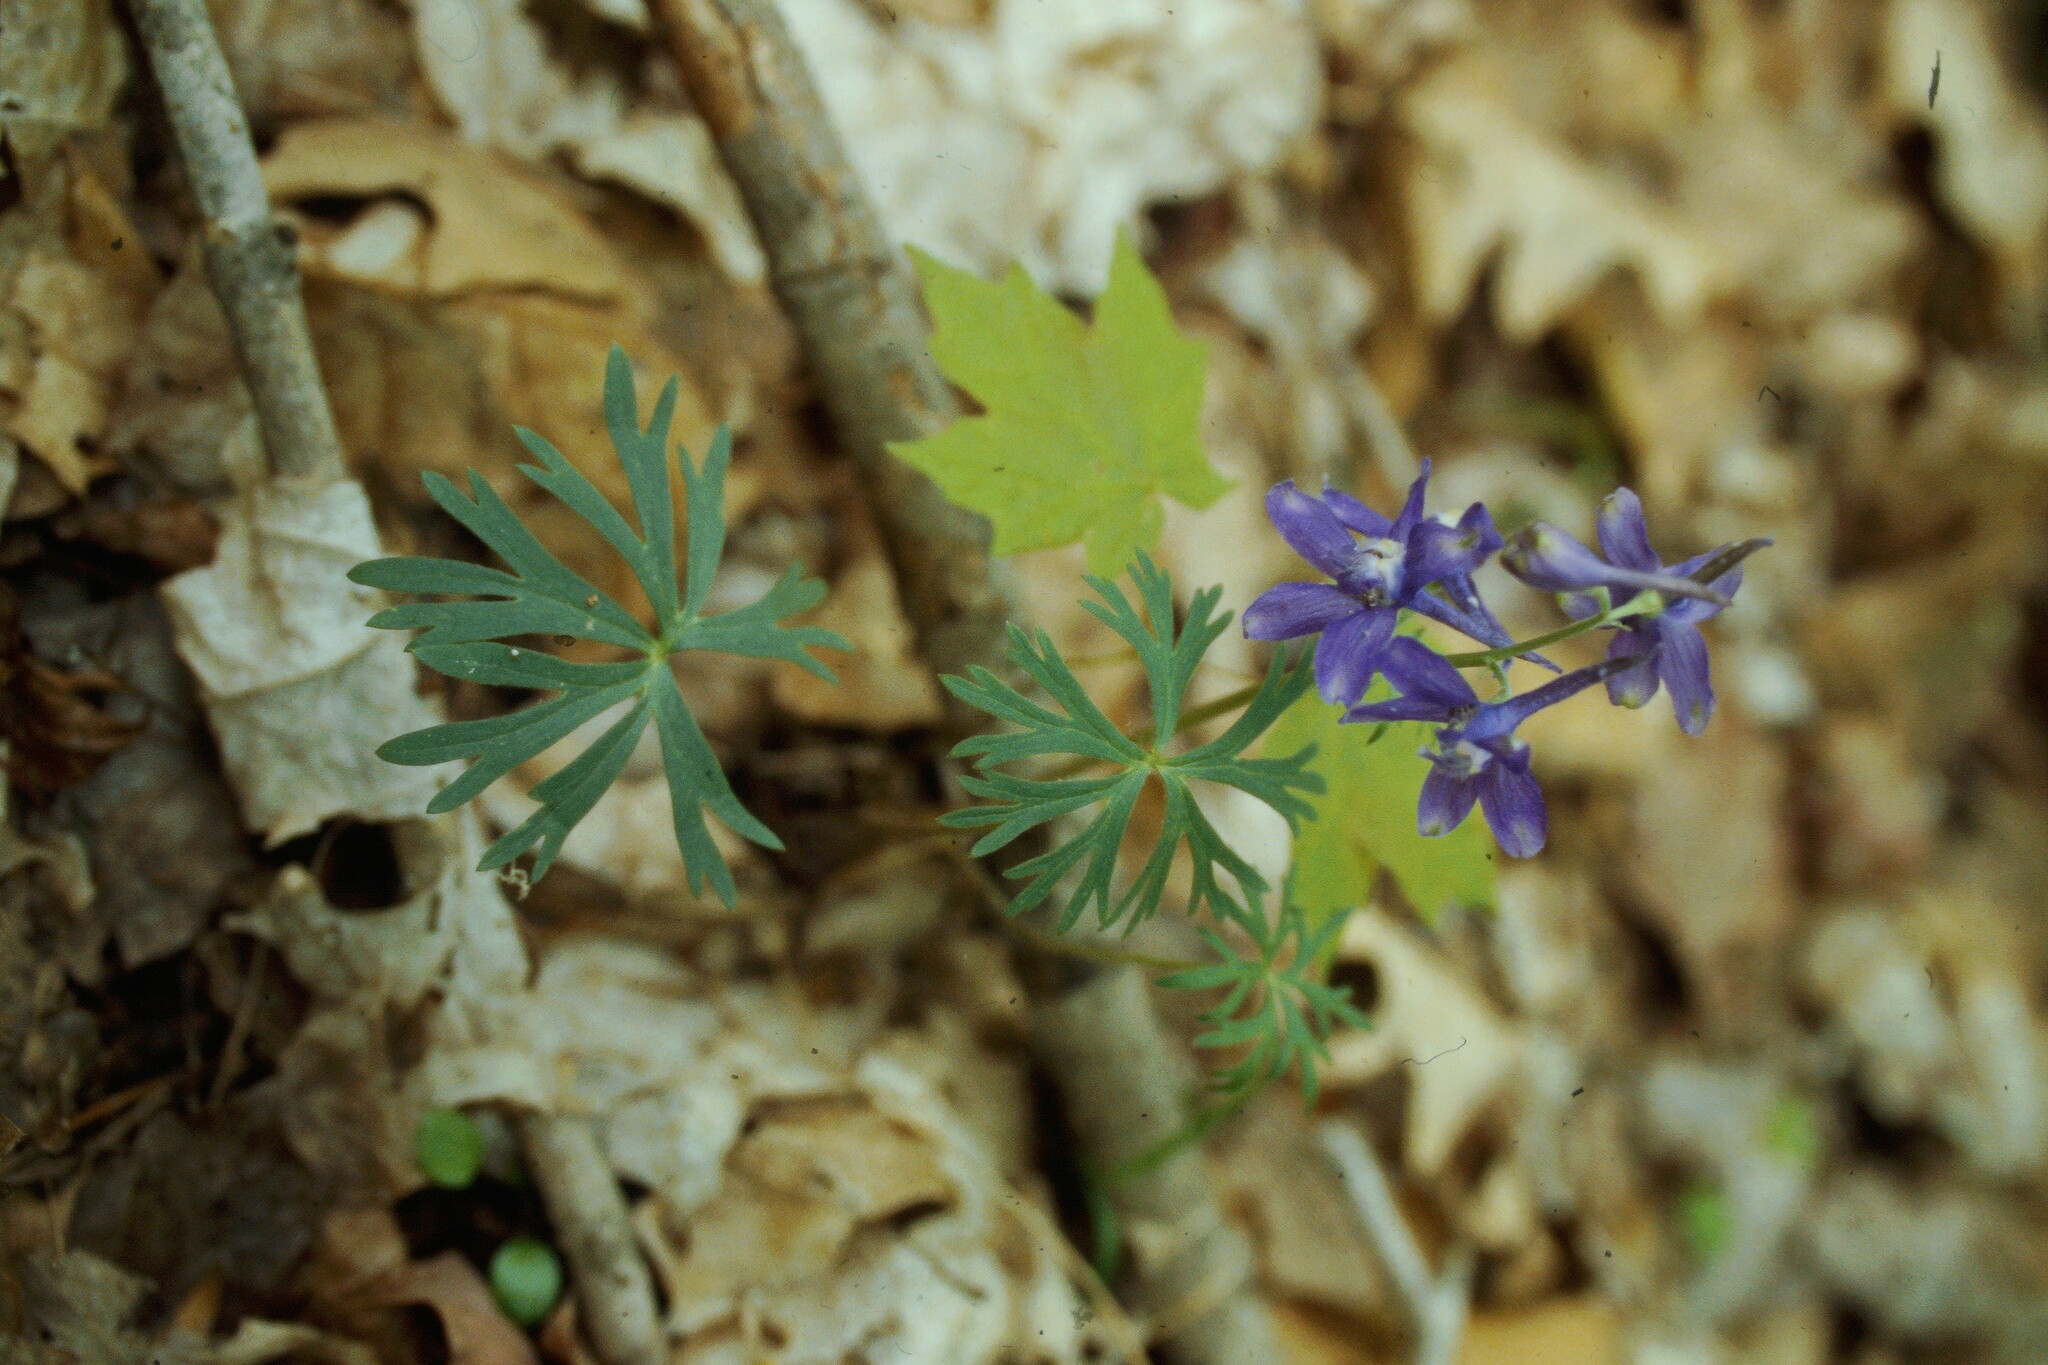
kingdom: Plantae
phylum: Tracheophyta
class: Magnoliopsida
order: Ranunculales
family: Ranunculaceae
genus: Delphinium
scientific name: Delphinium tricorne
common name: Dwarf larkspur
